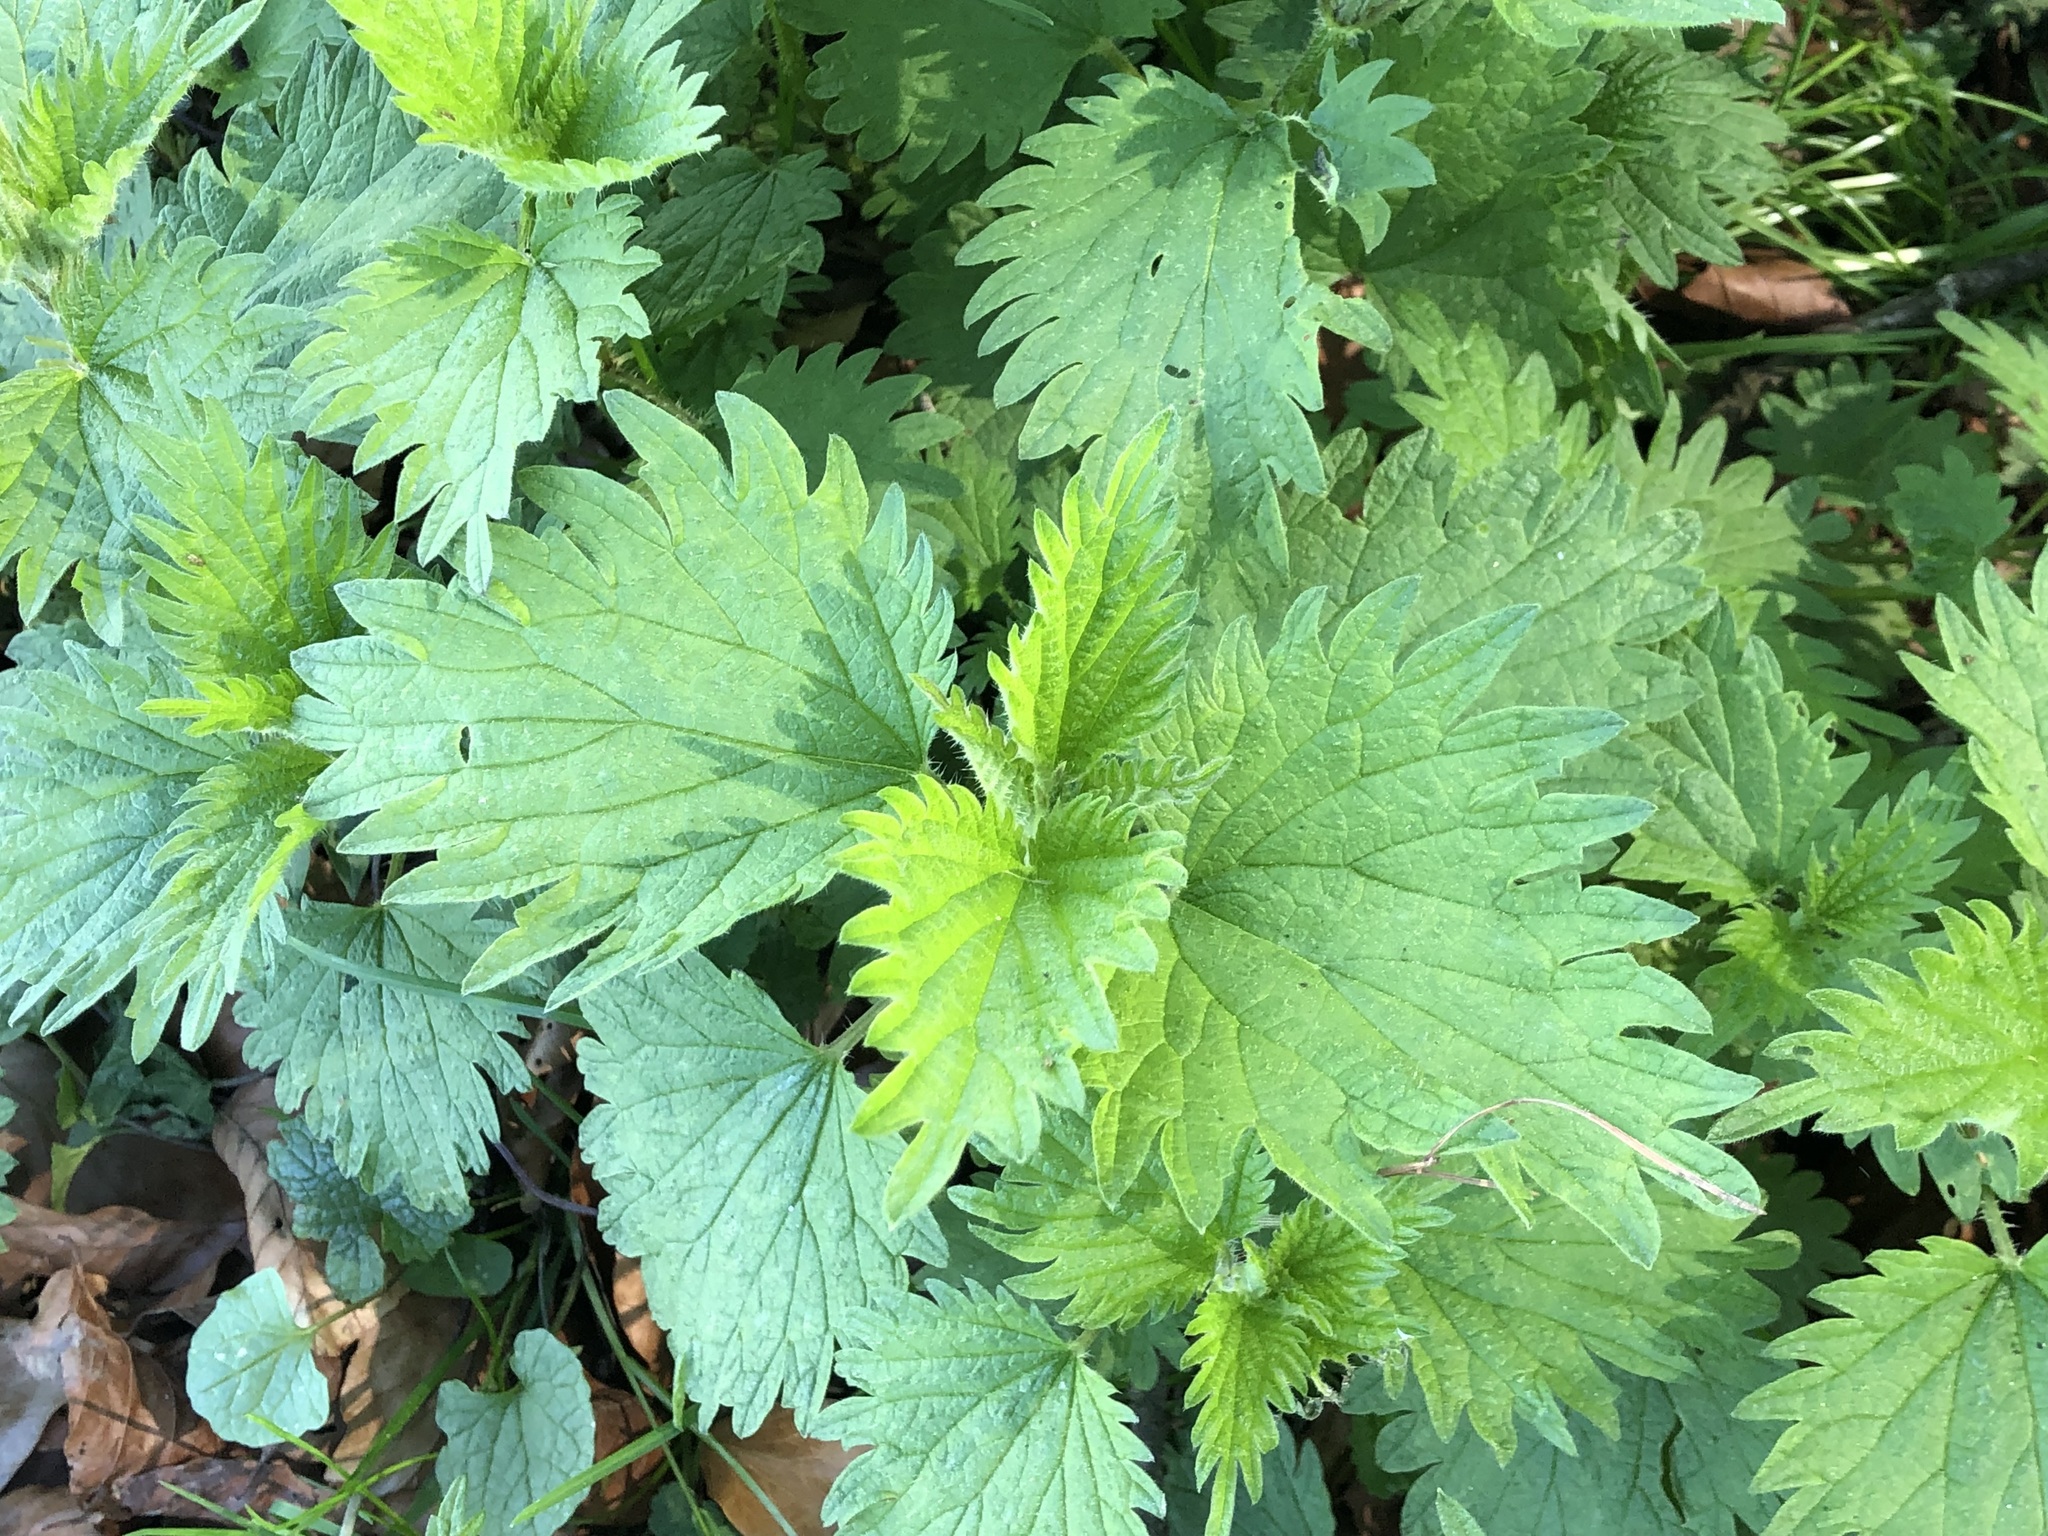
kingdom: Plantae
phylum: Tracheophyta
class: Magnoliopsida
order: Rosales
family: Urticaceae
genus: Urtica
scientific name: Urtica dioica
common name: Common nettle
